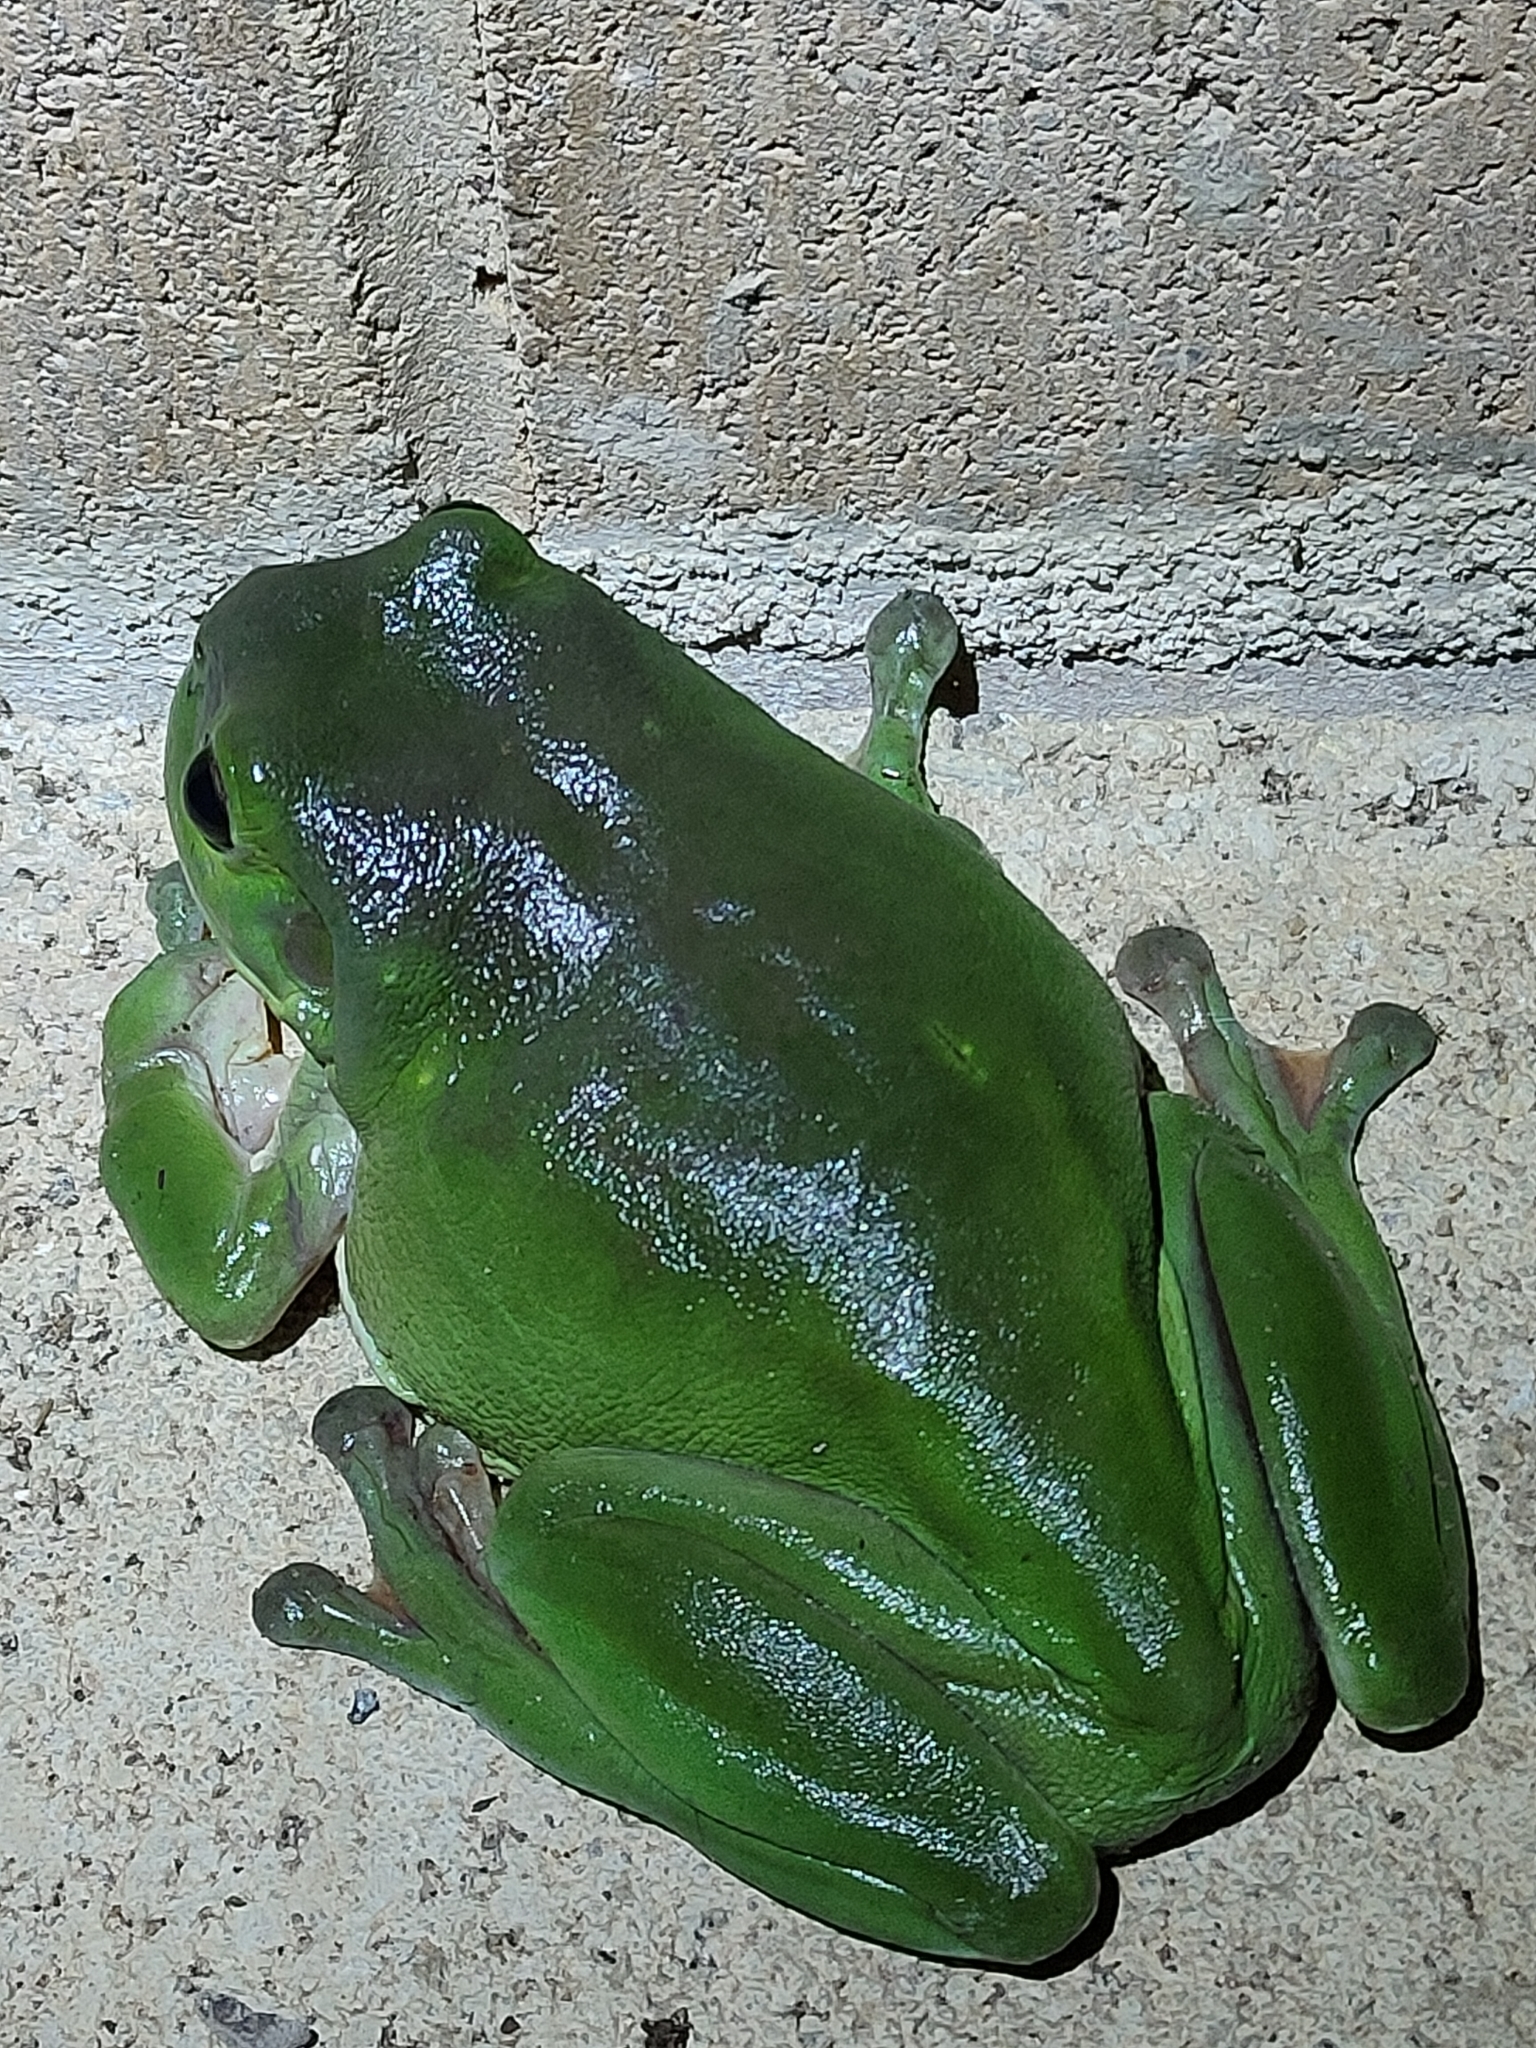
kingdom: Animalia
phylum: Chordata
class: Amphibia
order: Anura
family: Pelodryadidae
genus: Ranoidea
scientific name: Ranoidea caerulea
